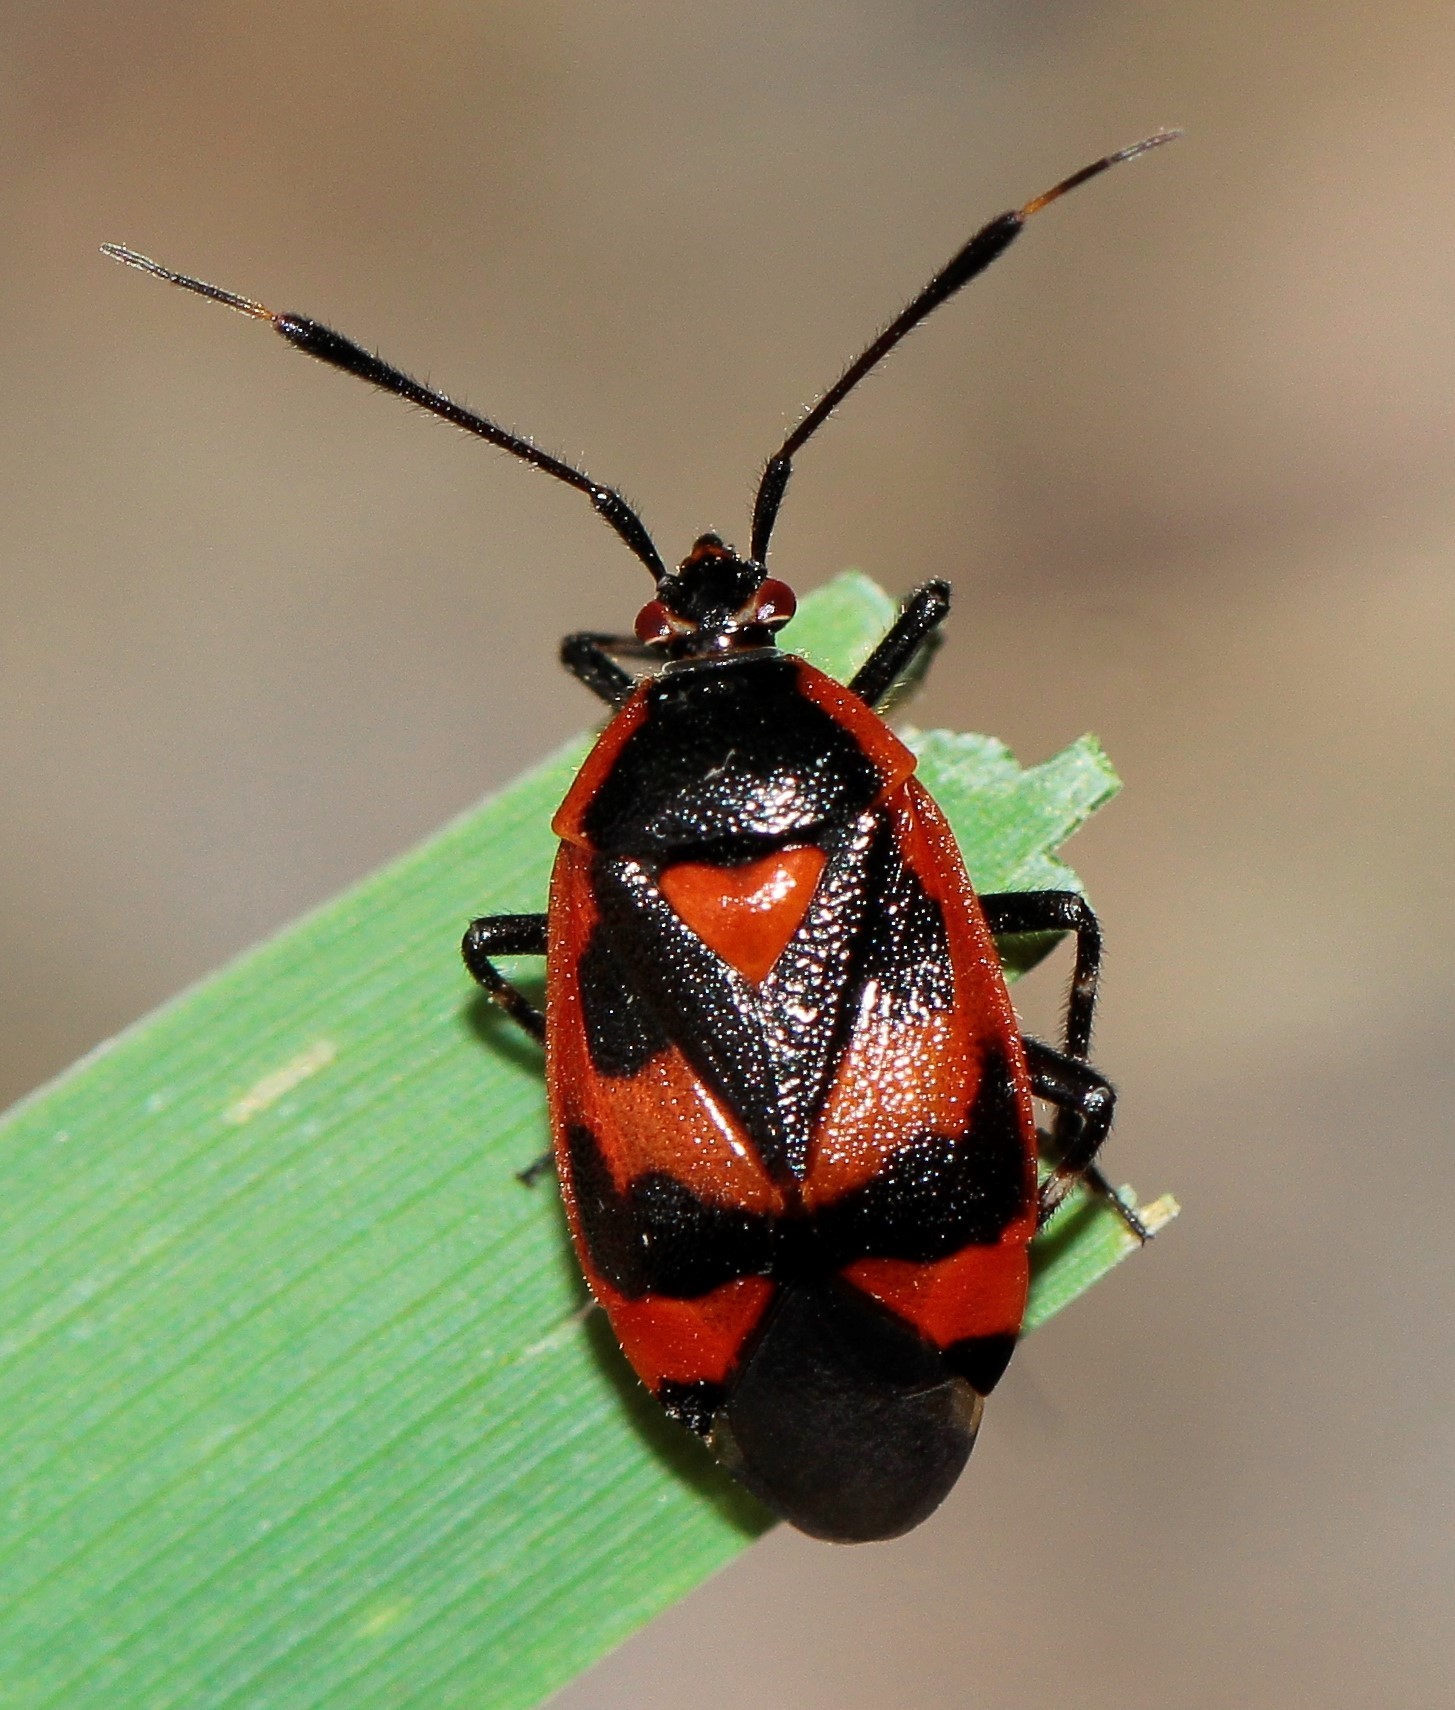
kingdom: Animalia
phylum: Arthropoda
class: Insecta
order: Hemiptera
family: Miridae
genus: Deraeocoris
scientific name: Deraeocoris trifasciatus
